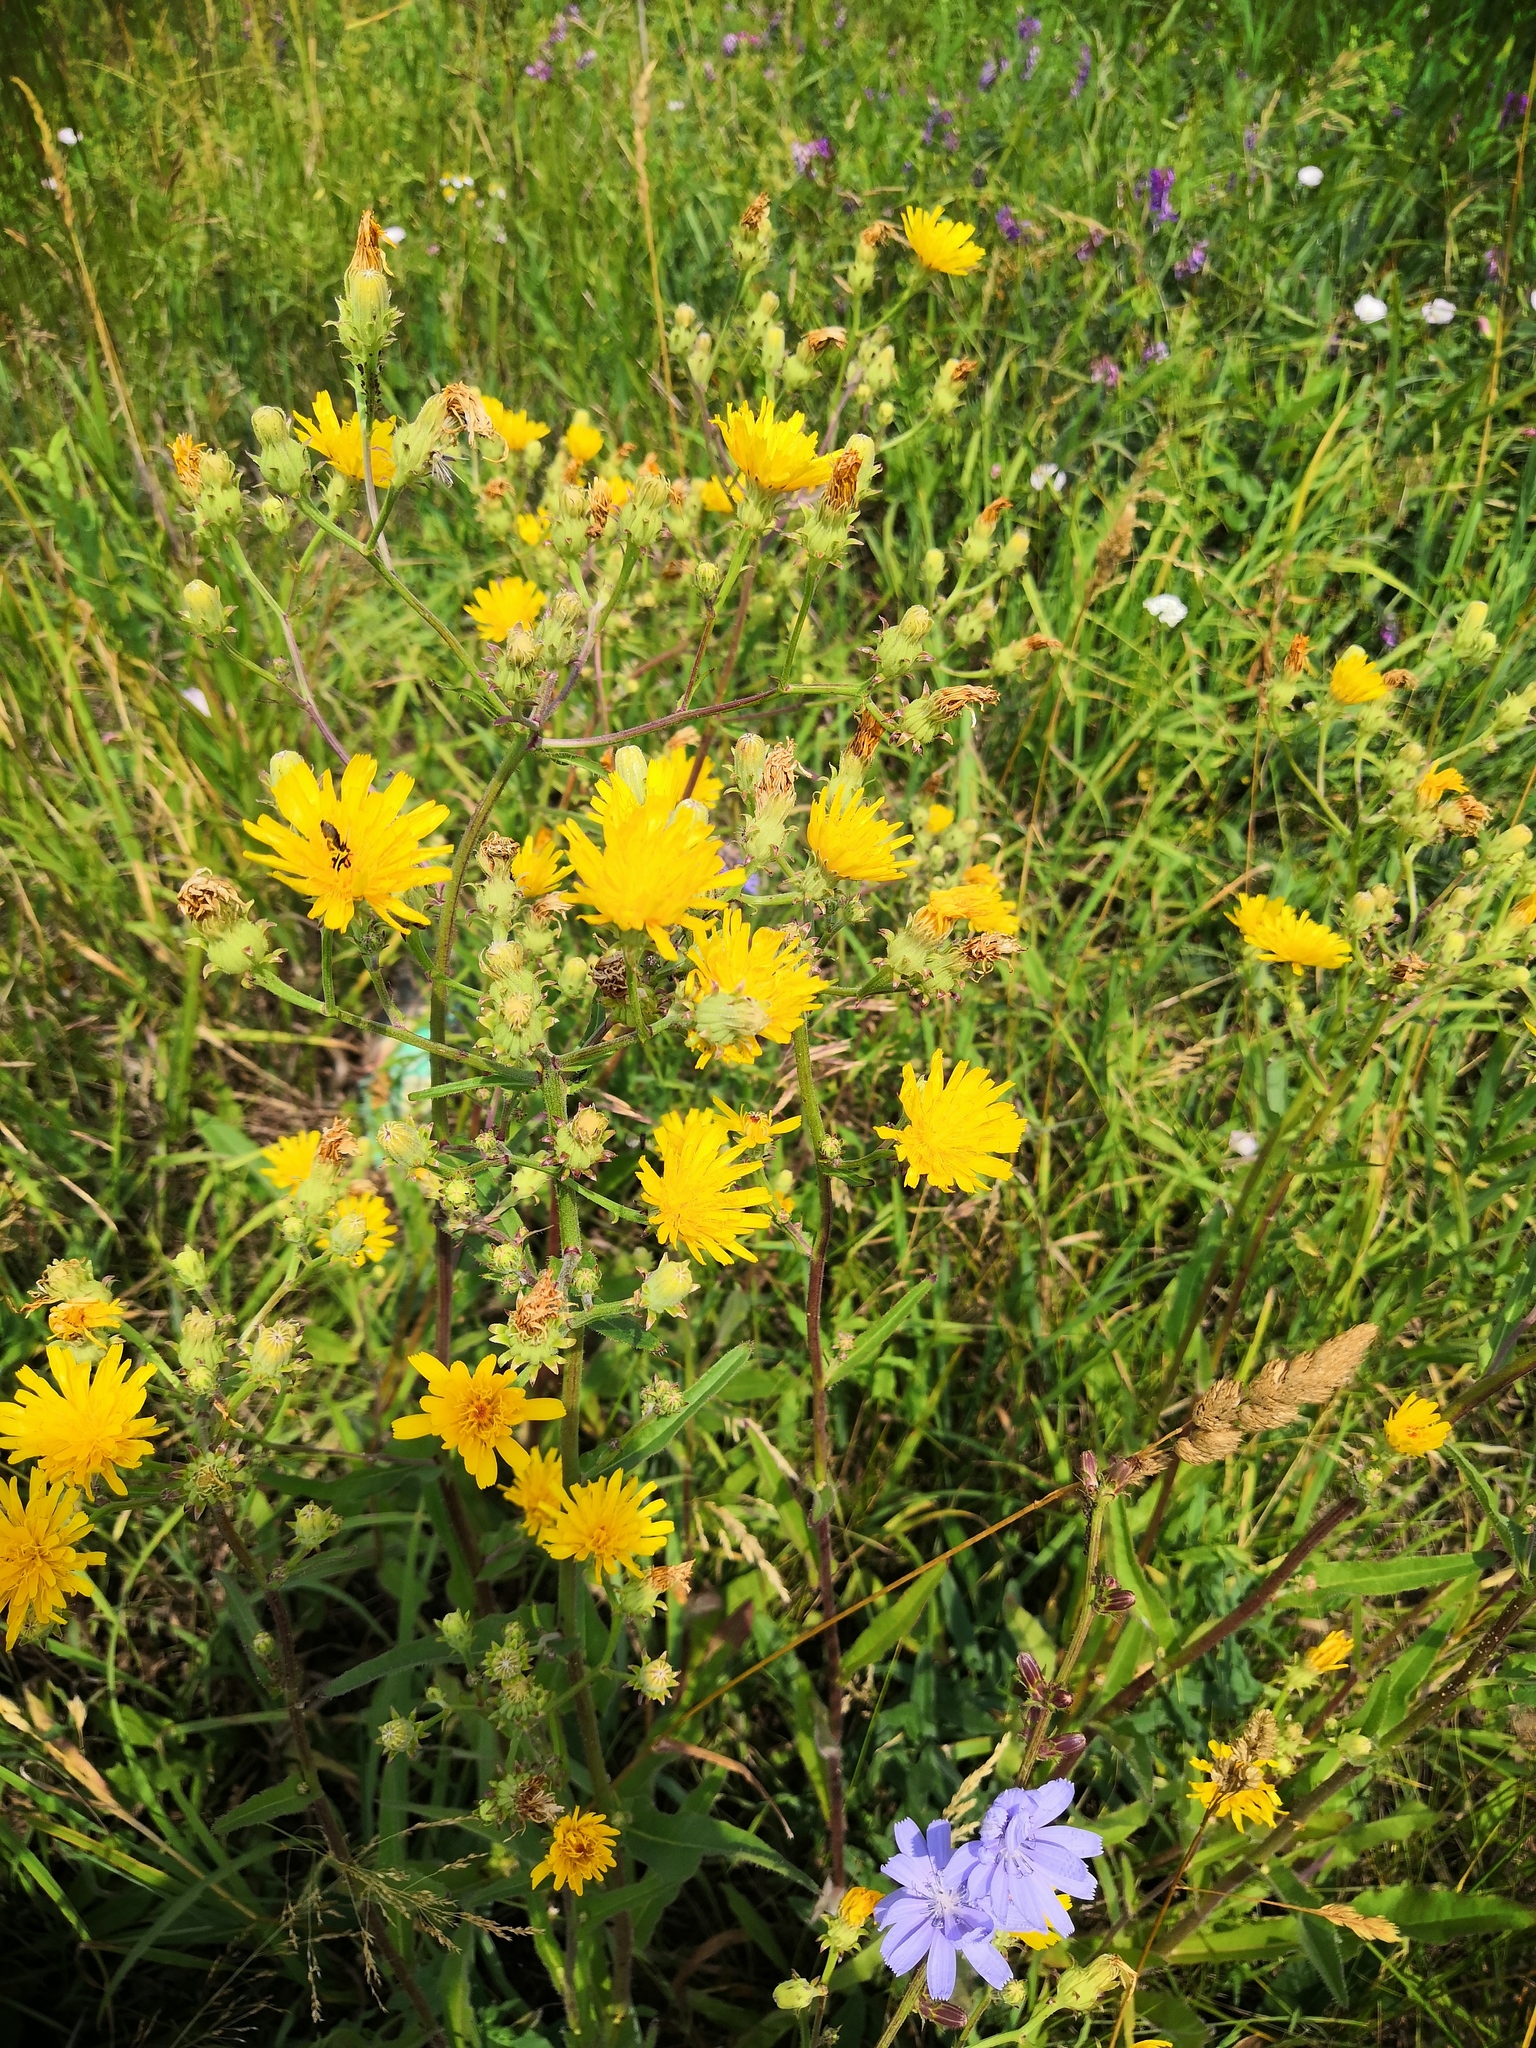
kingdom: Plantae
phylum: Tracheophyta
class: Magnoliopsida
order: Asterales
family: Asteraceae
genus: Picris
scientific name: Picris hieracioides
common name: Hawkweed oxtongue
